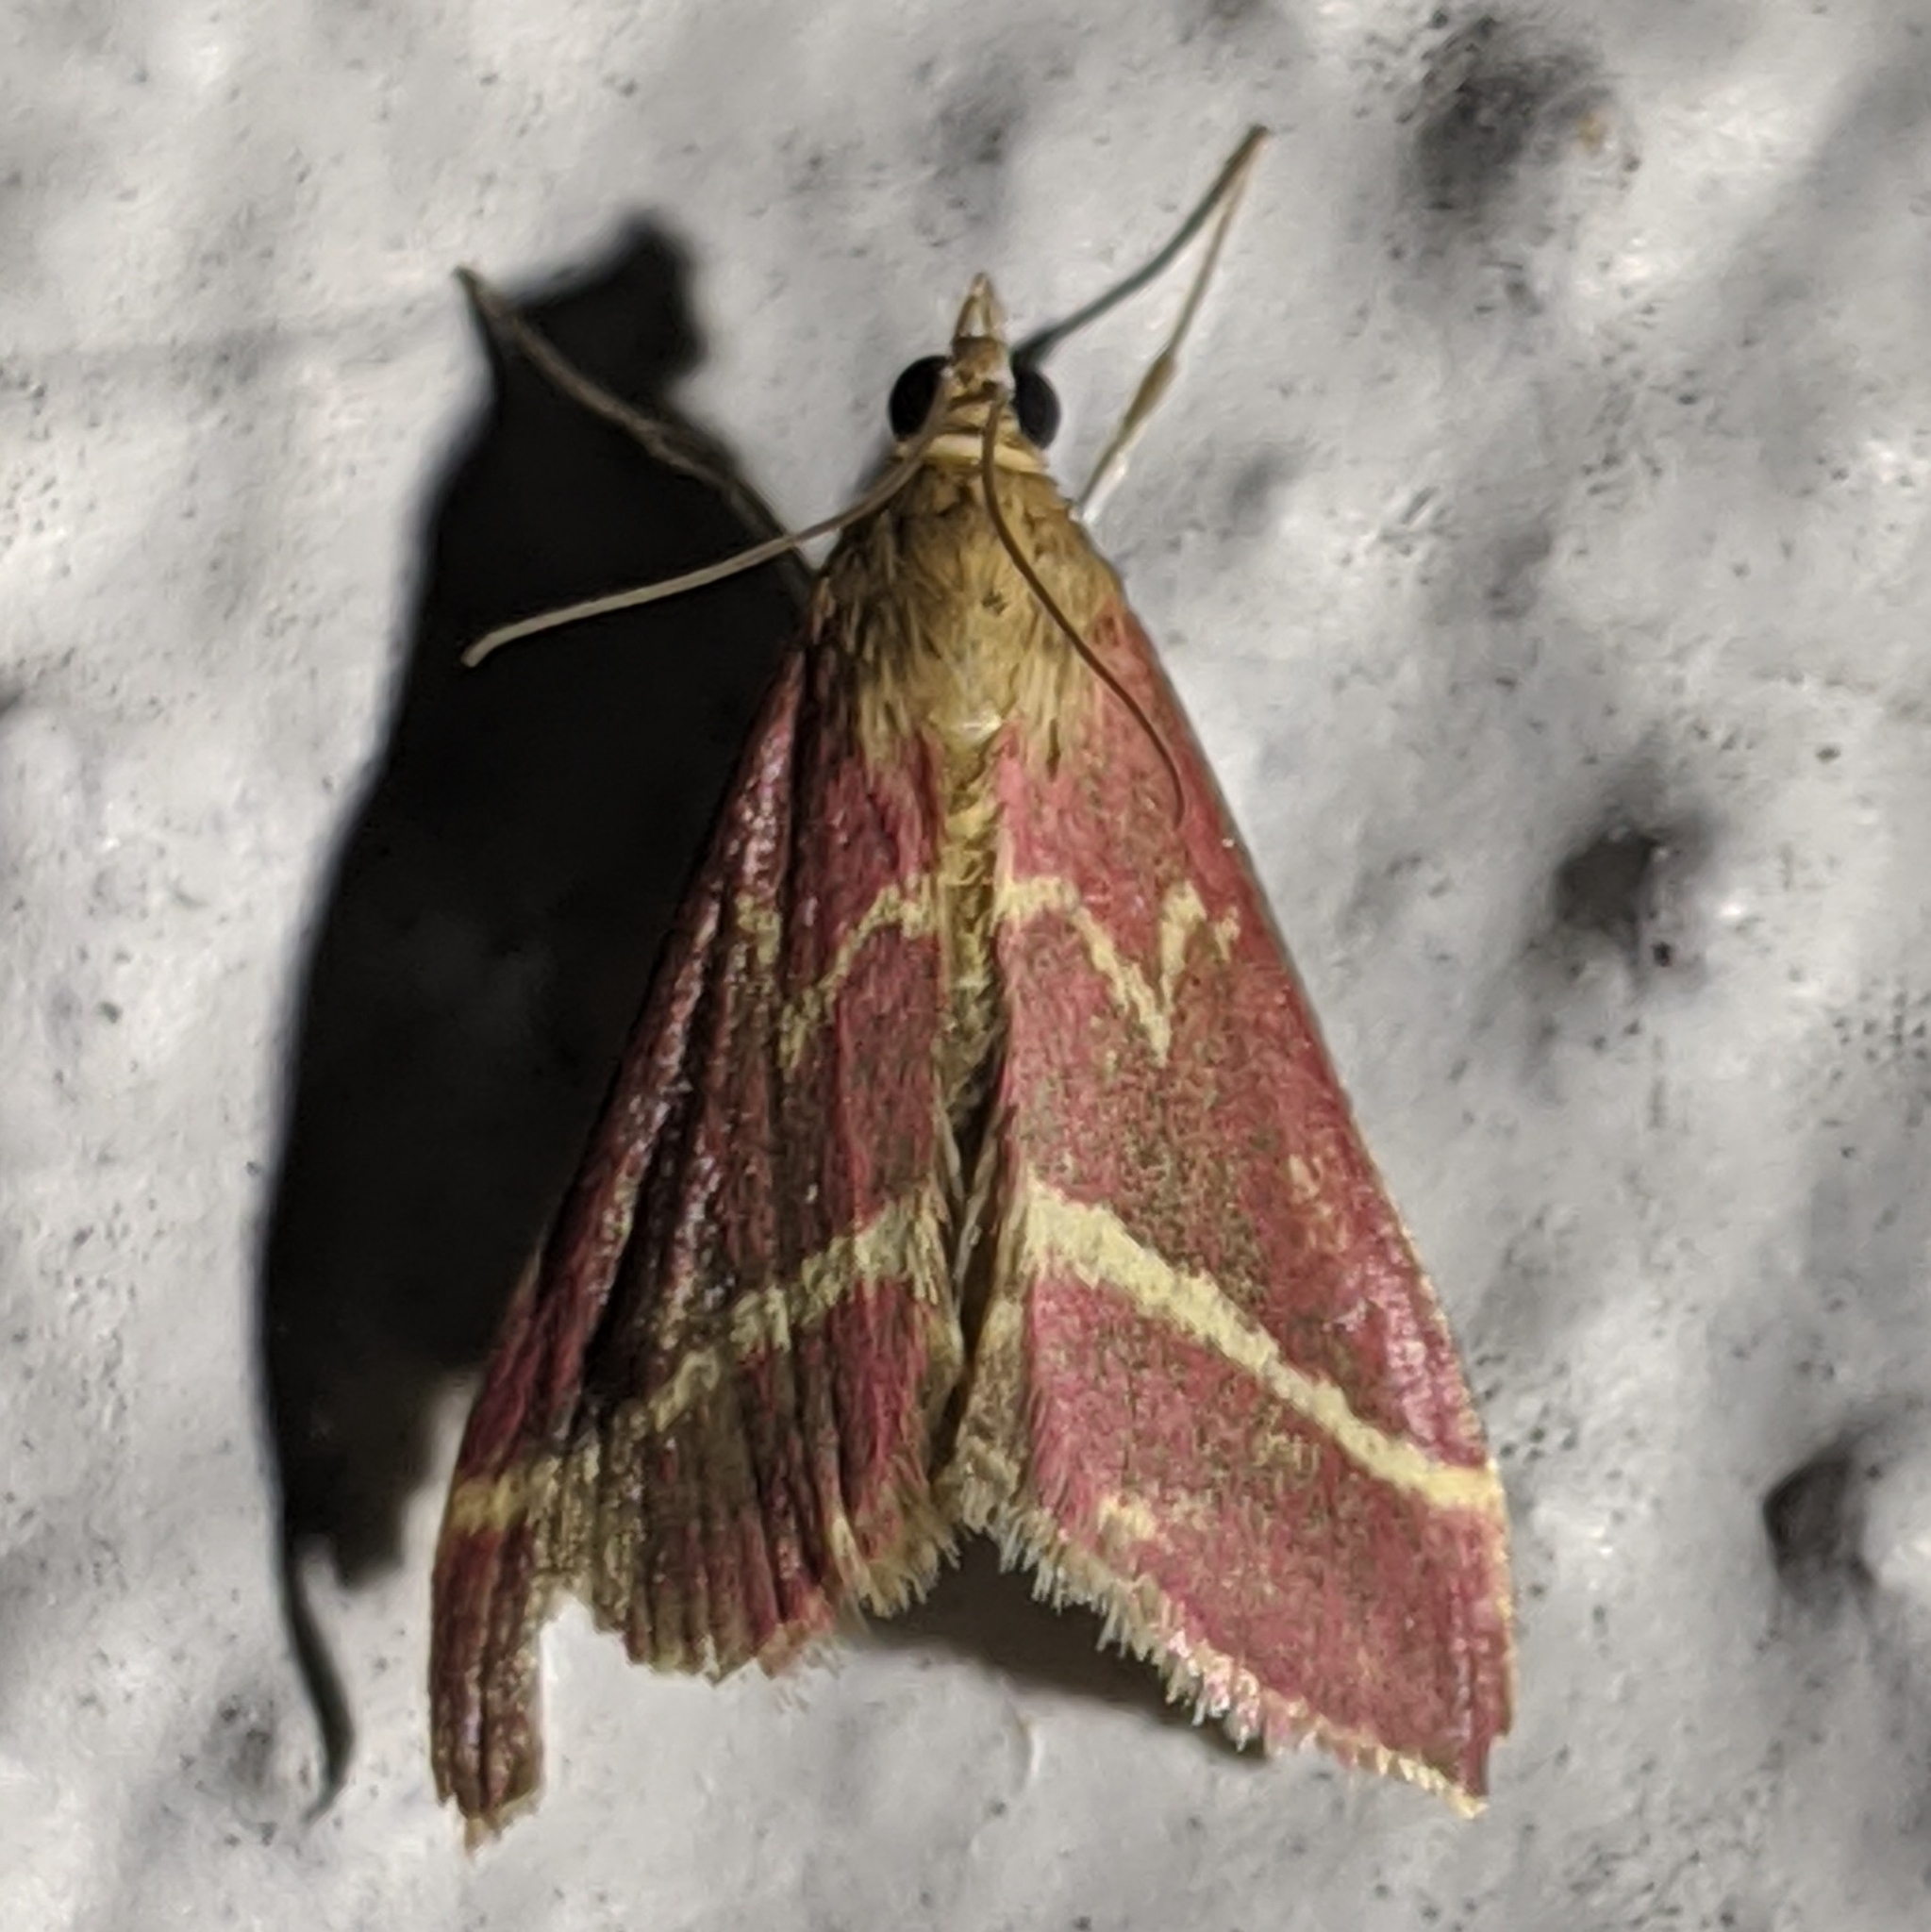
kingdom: Animalia
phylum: Arthropoda
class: Insecta
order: Lepidoptera
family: Crambidae
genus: Pyrausta
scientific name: Pyrausta volupialis
